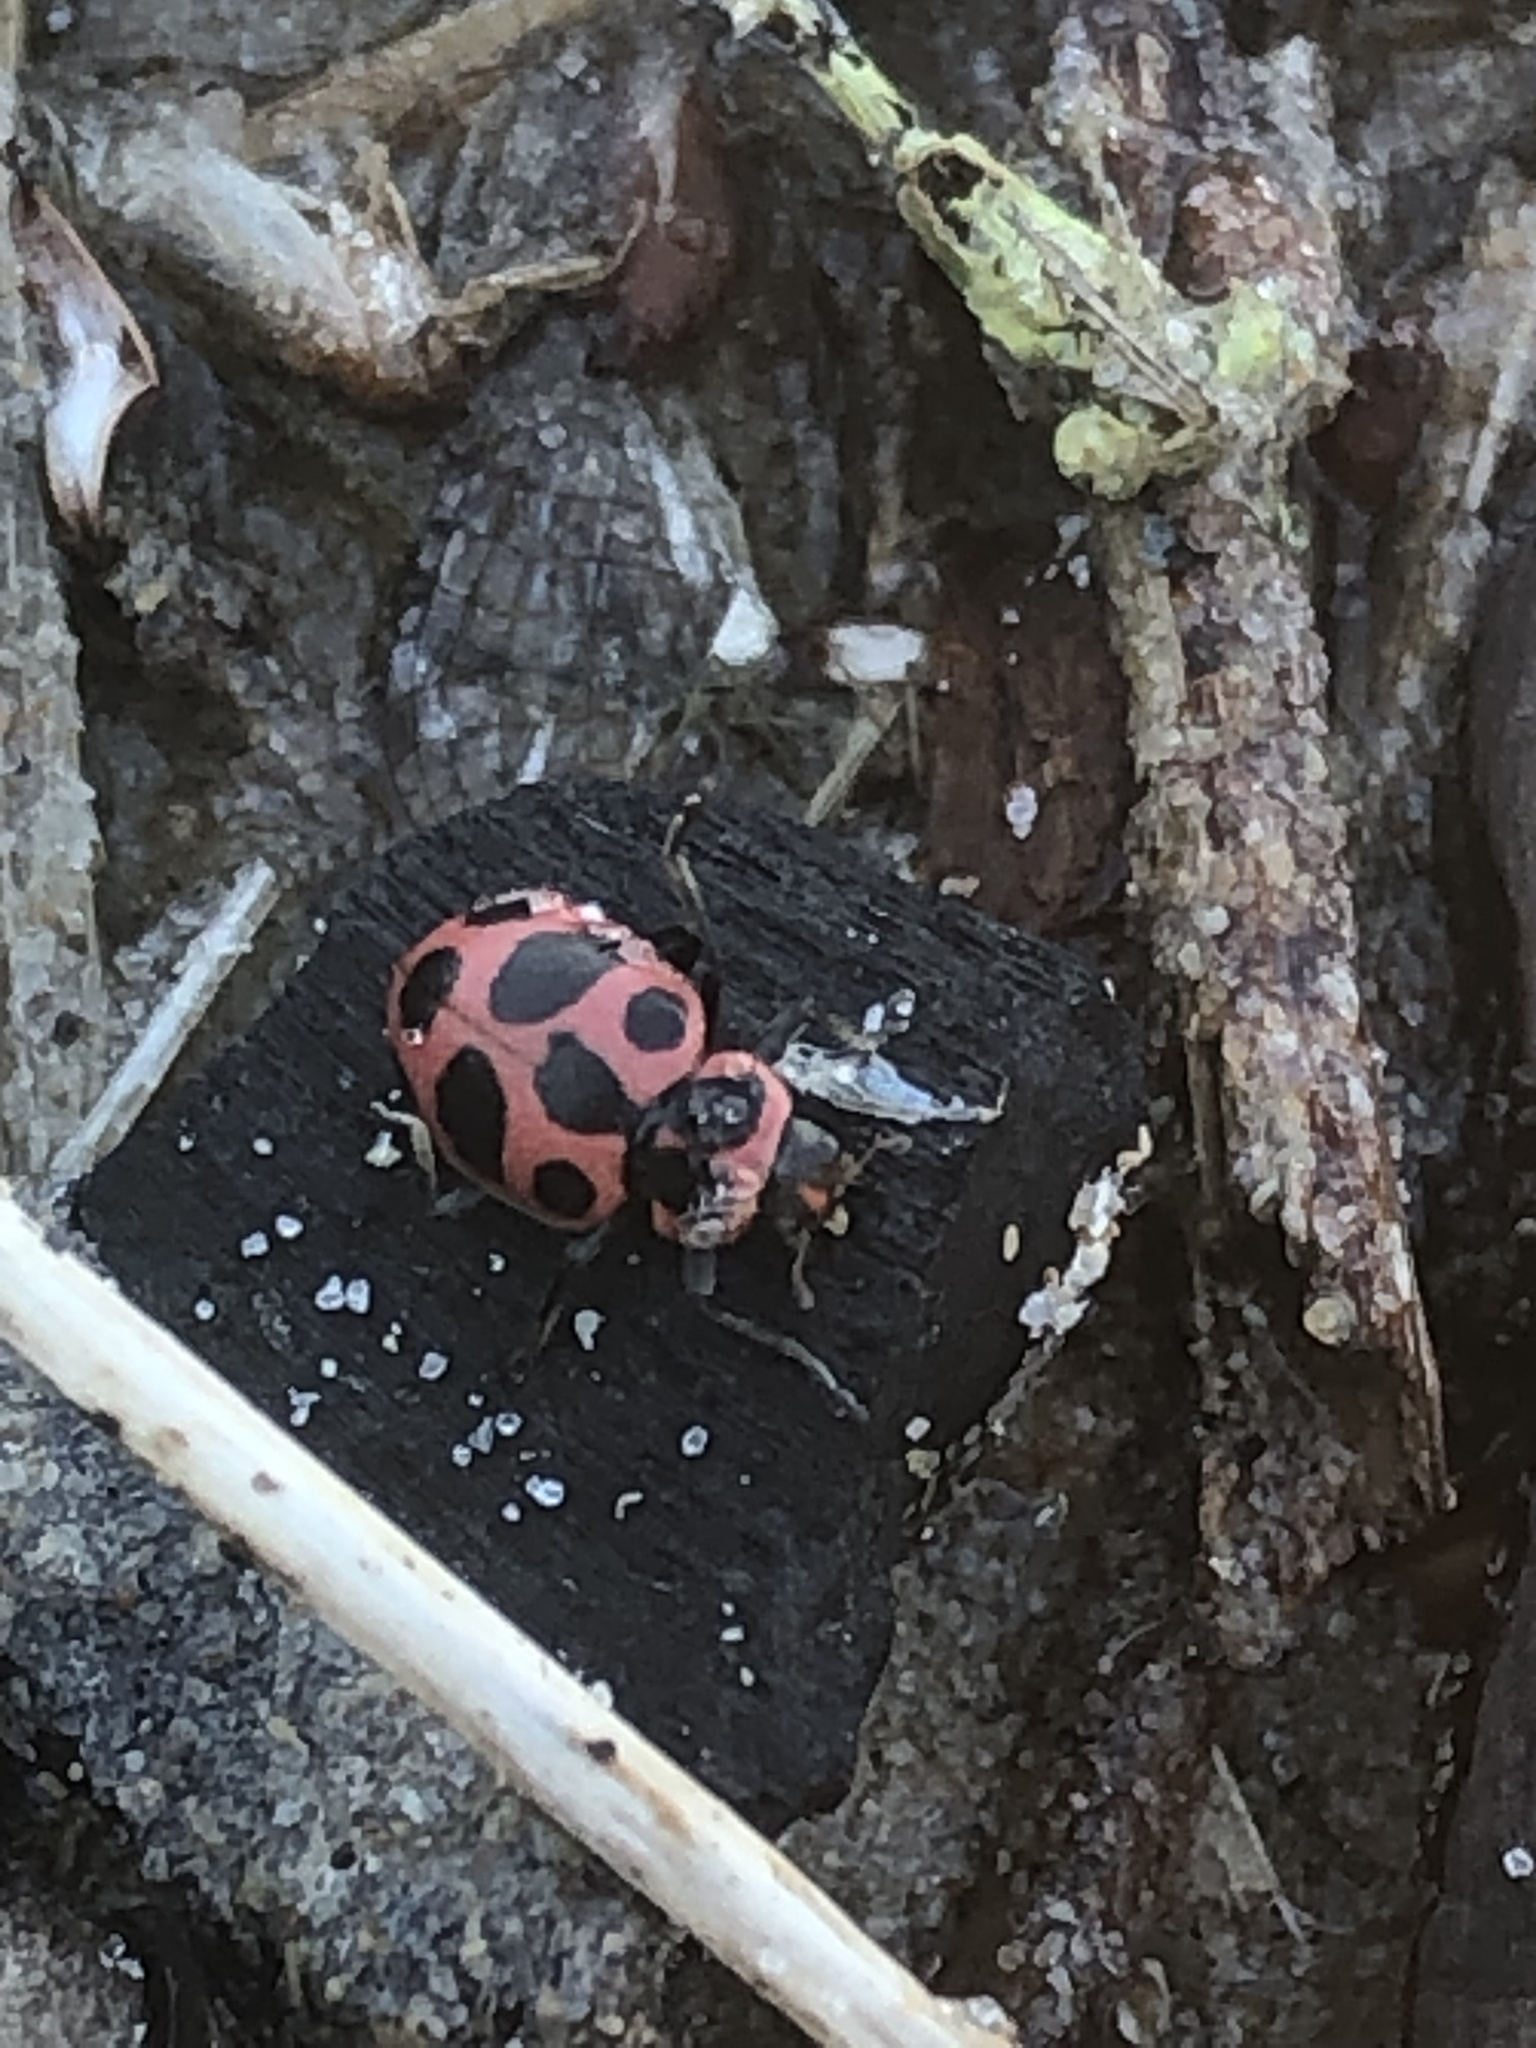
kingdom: Animalia
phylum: Arthropoda
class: Insecta
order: Coleoptera
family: Coccinellidae
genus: Coleomegilla
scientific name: Coleomegilla maculata
